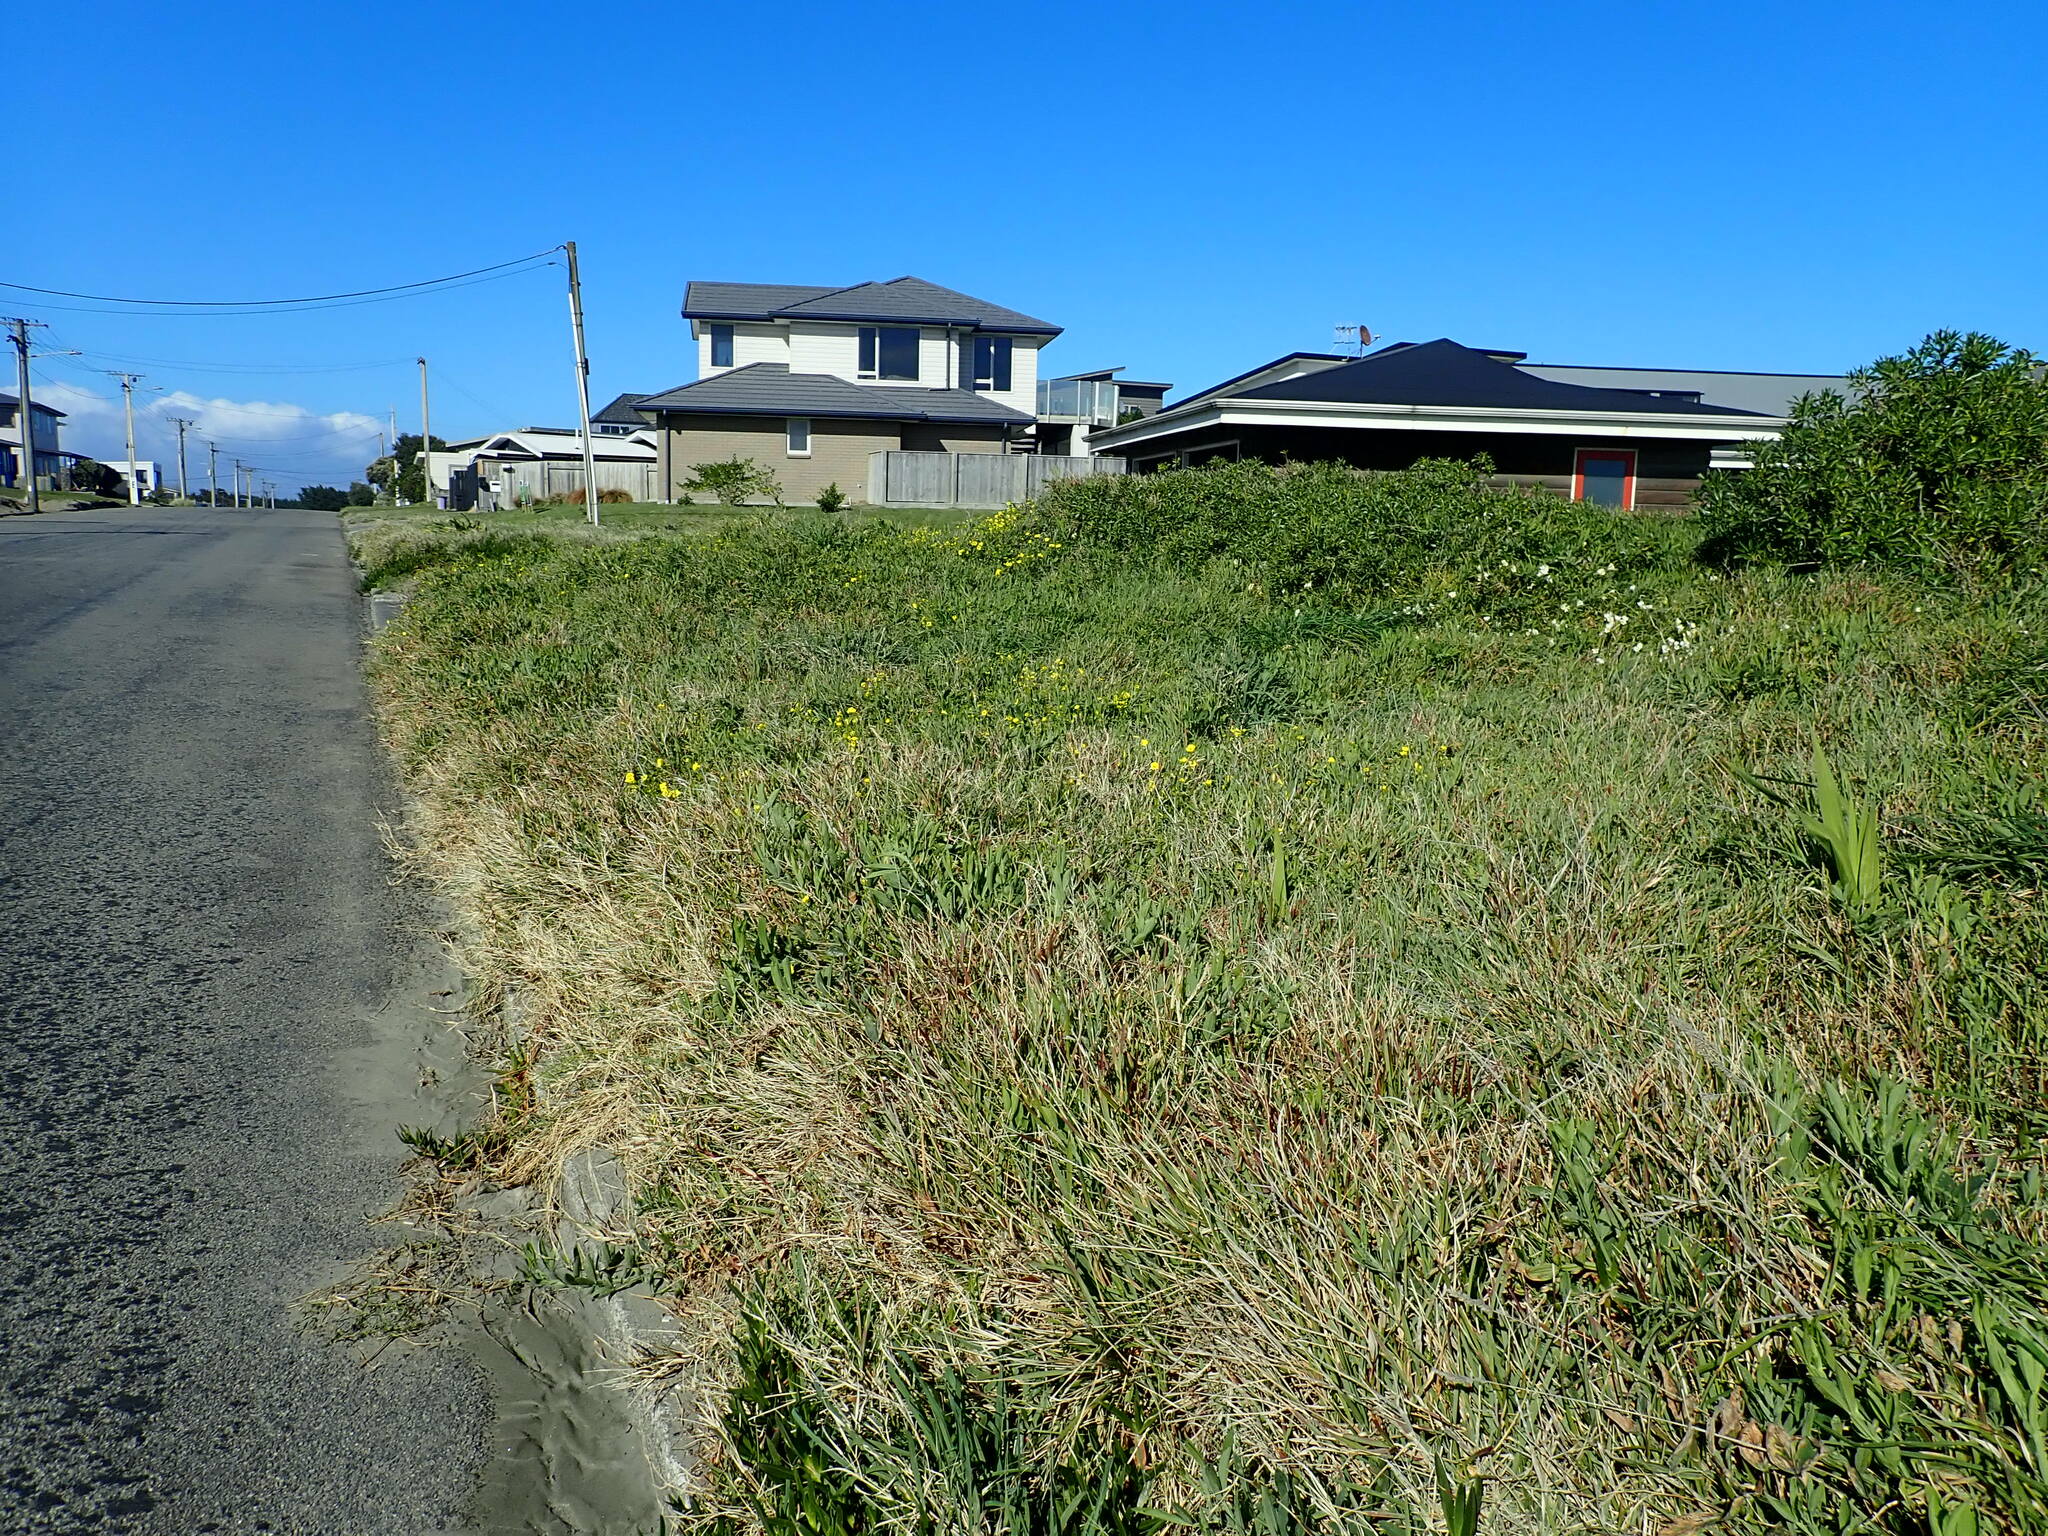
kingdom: Plantae
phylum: Tracheophyta
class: Magnoliopsida
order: Oxalidales
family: Oxalidaceae
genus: Oxalis
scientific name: Oxalis pes-caprae
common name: Bermuda-buttercup
